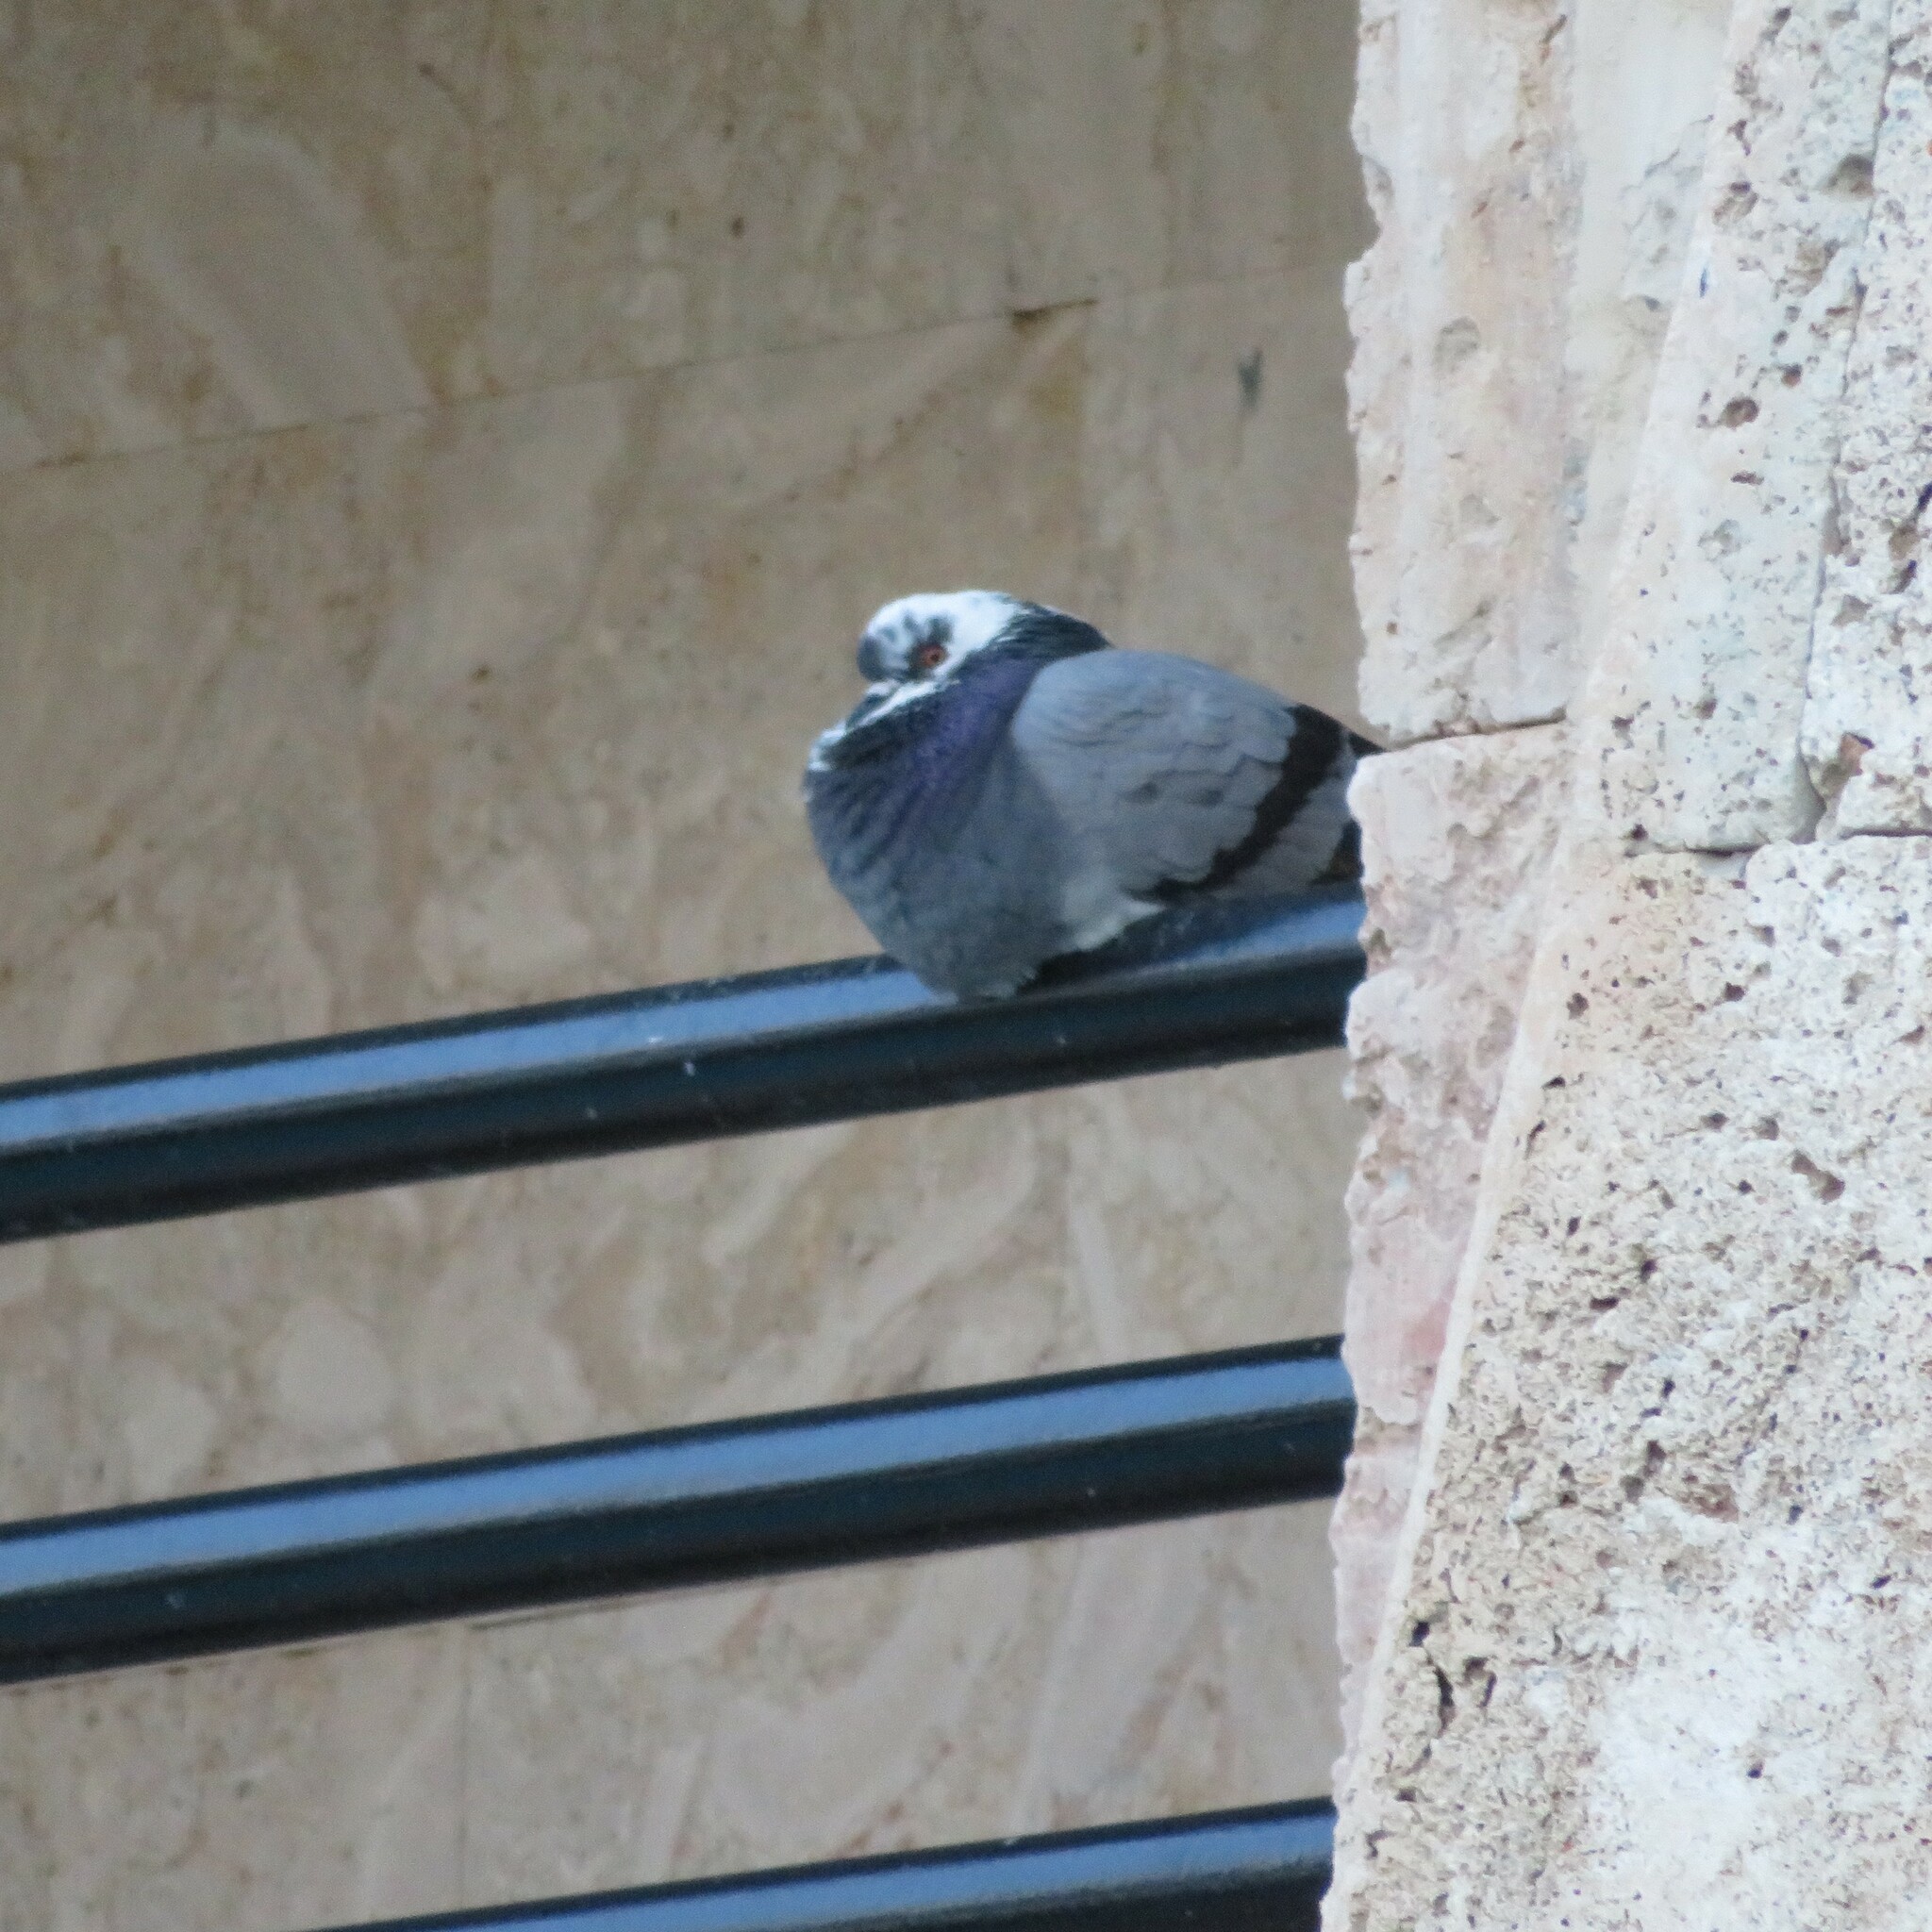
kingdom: Animalia
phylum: Chordata
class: Aves
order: Columbiformes
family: Columbidae
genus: Columba
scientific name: Columba livia
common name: Rock pigeon
